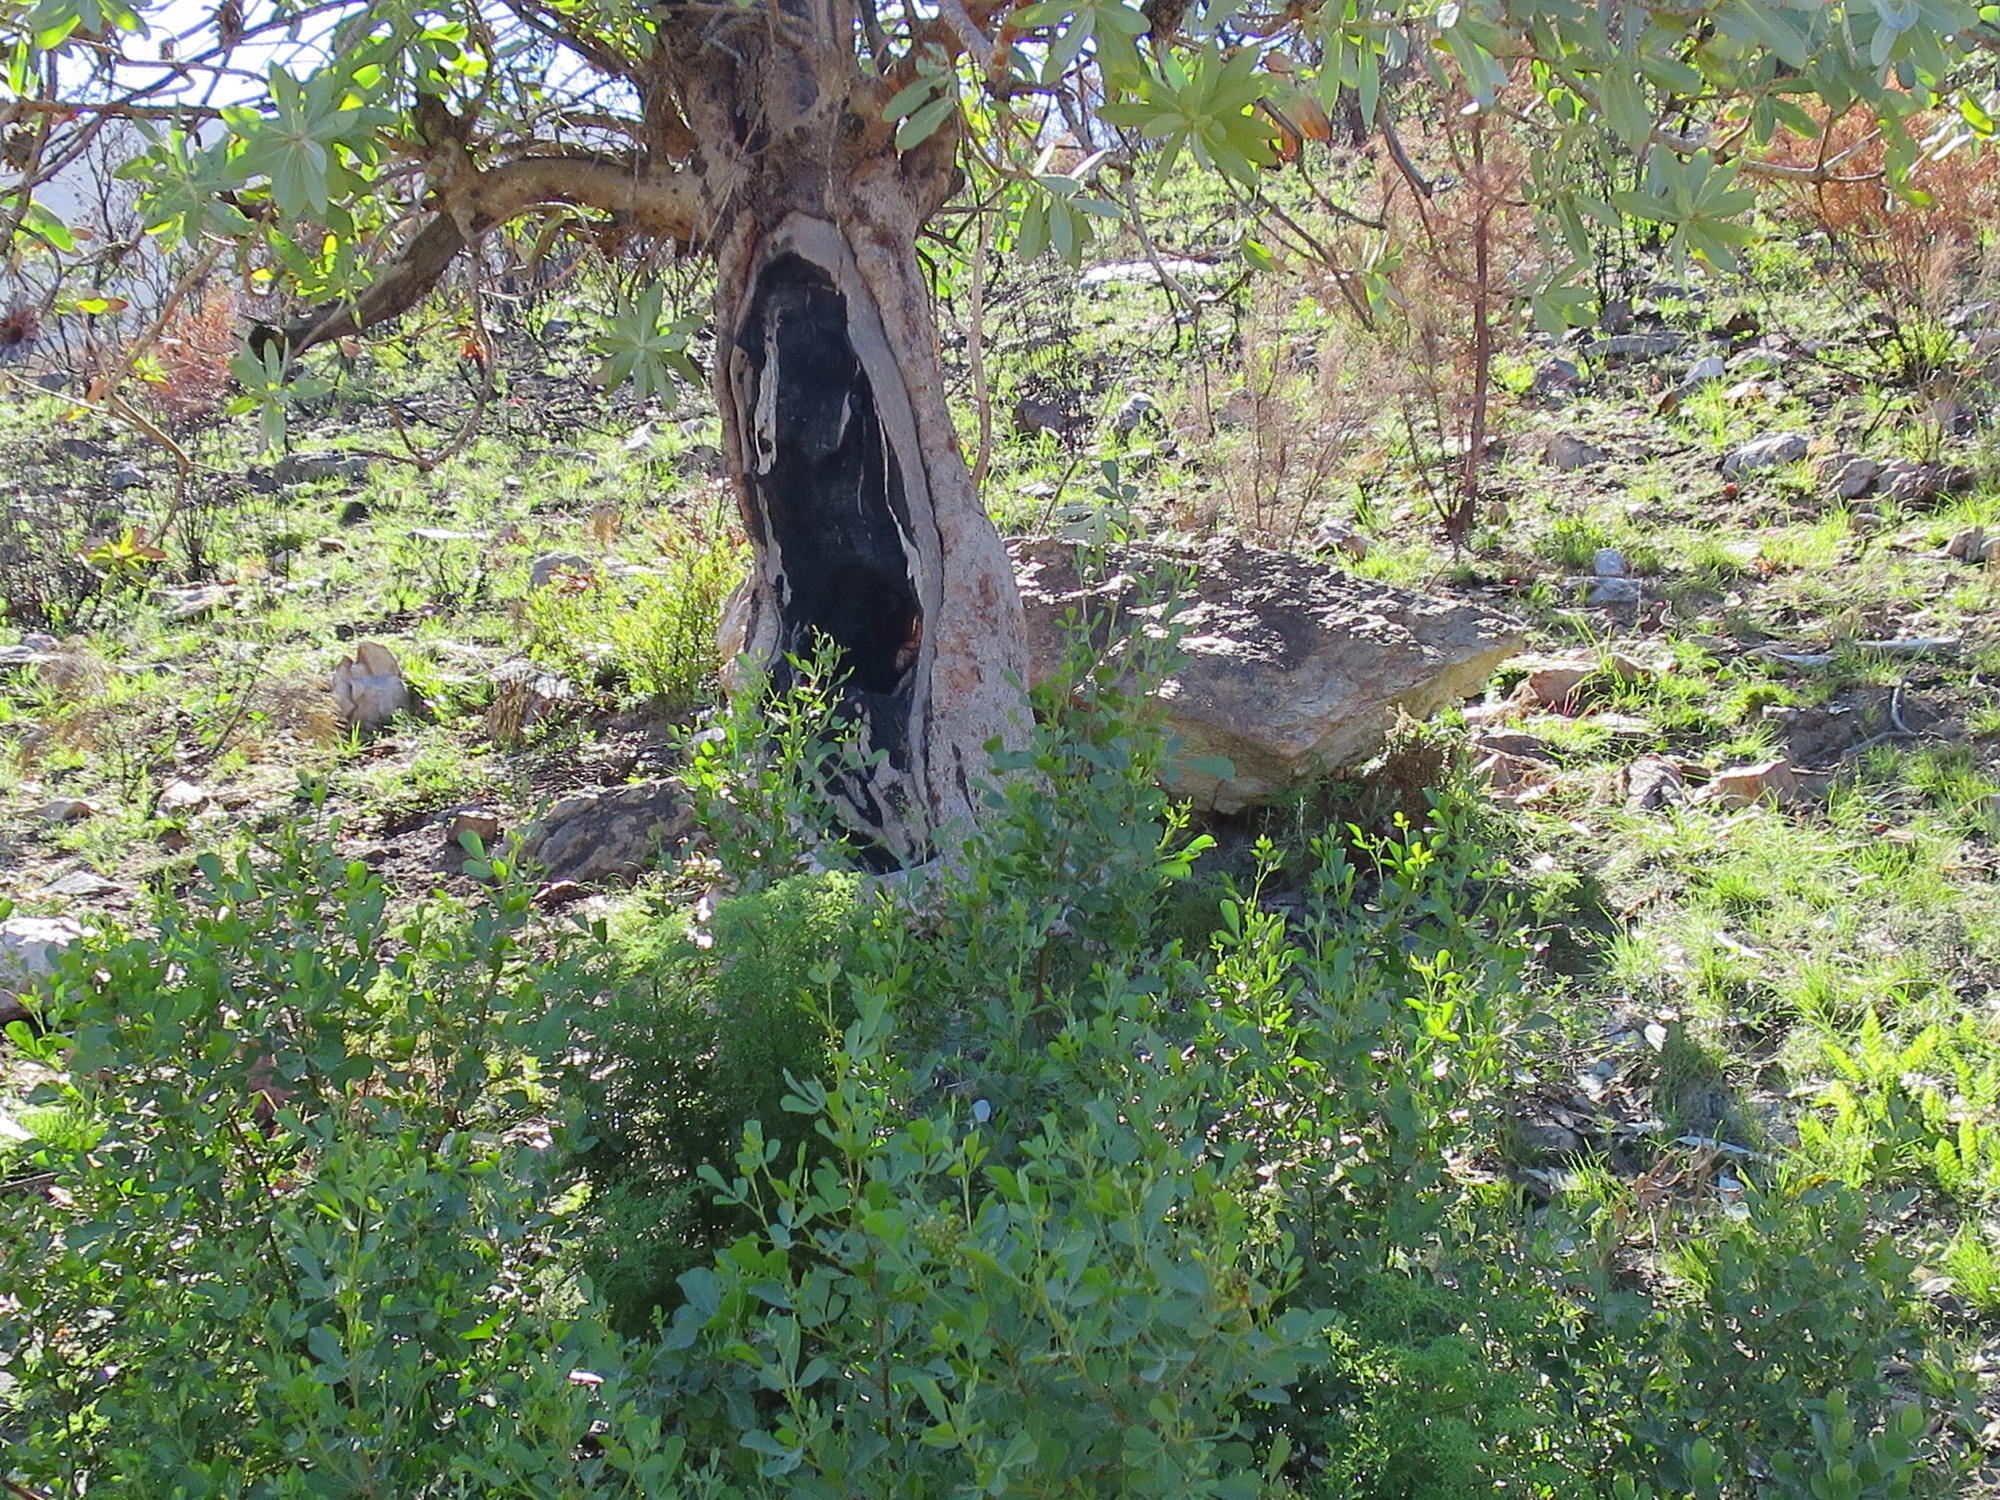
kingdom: Plantae
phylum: Tracheophyta
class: Magnoliopsida
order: Proteales
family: Proteaceae
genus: Protea
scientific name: Protea nitida
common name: Tree protea
